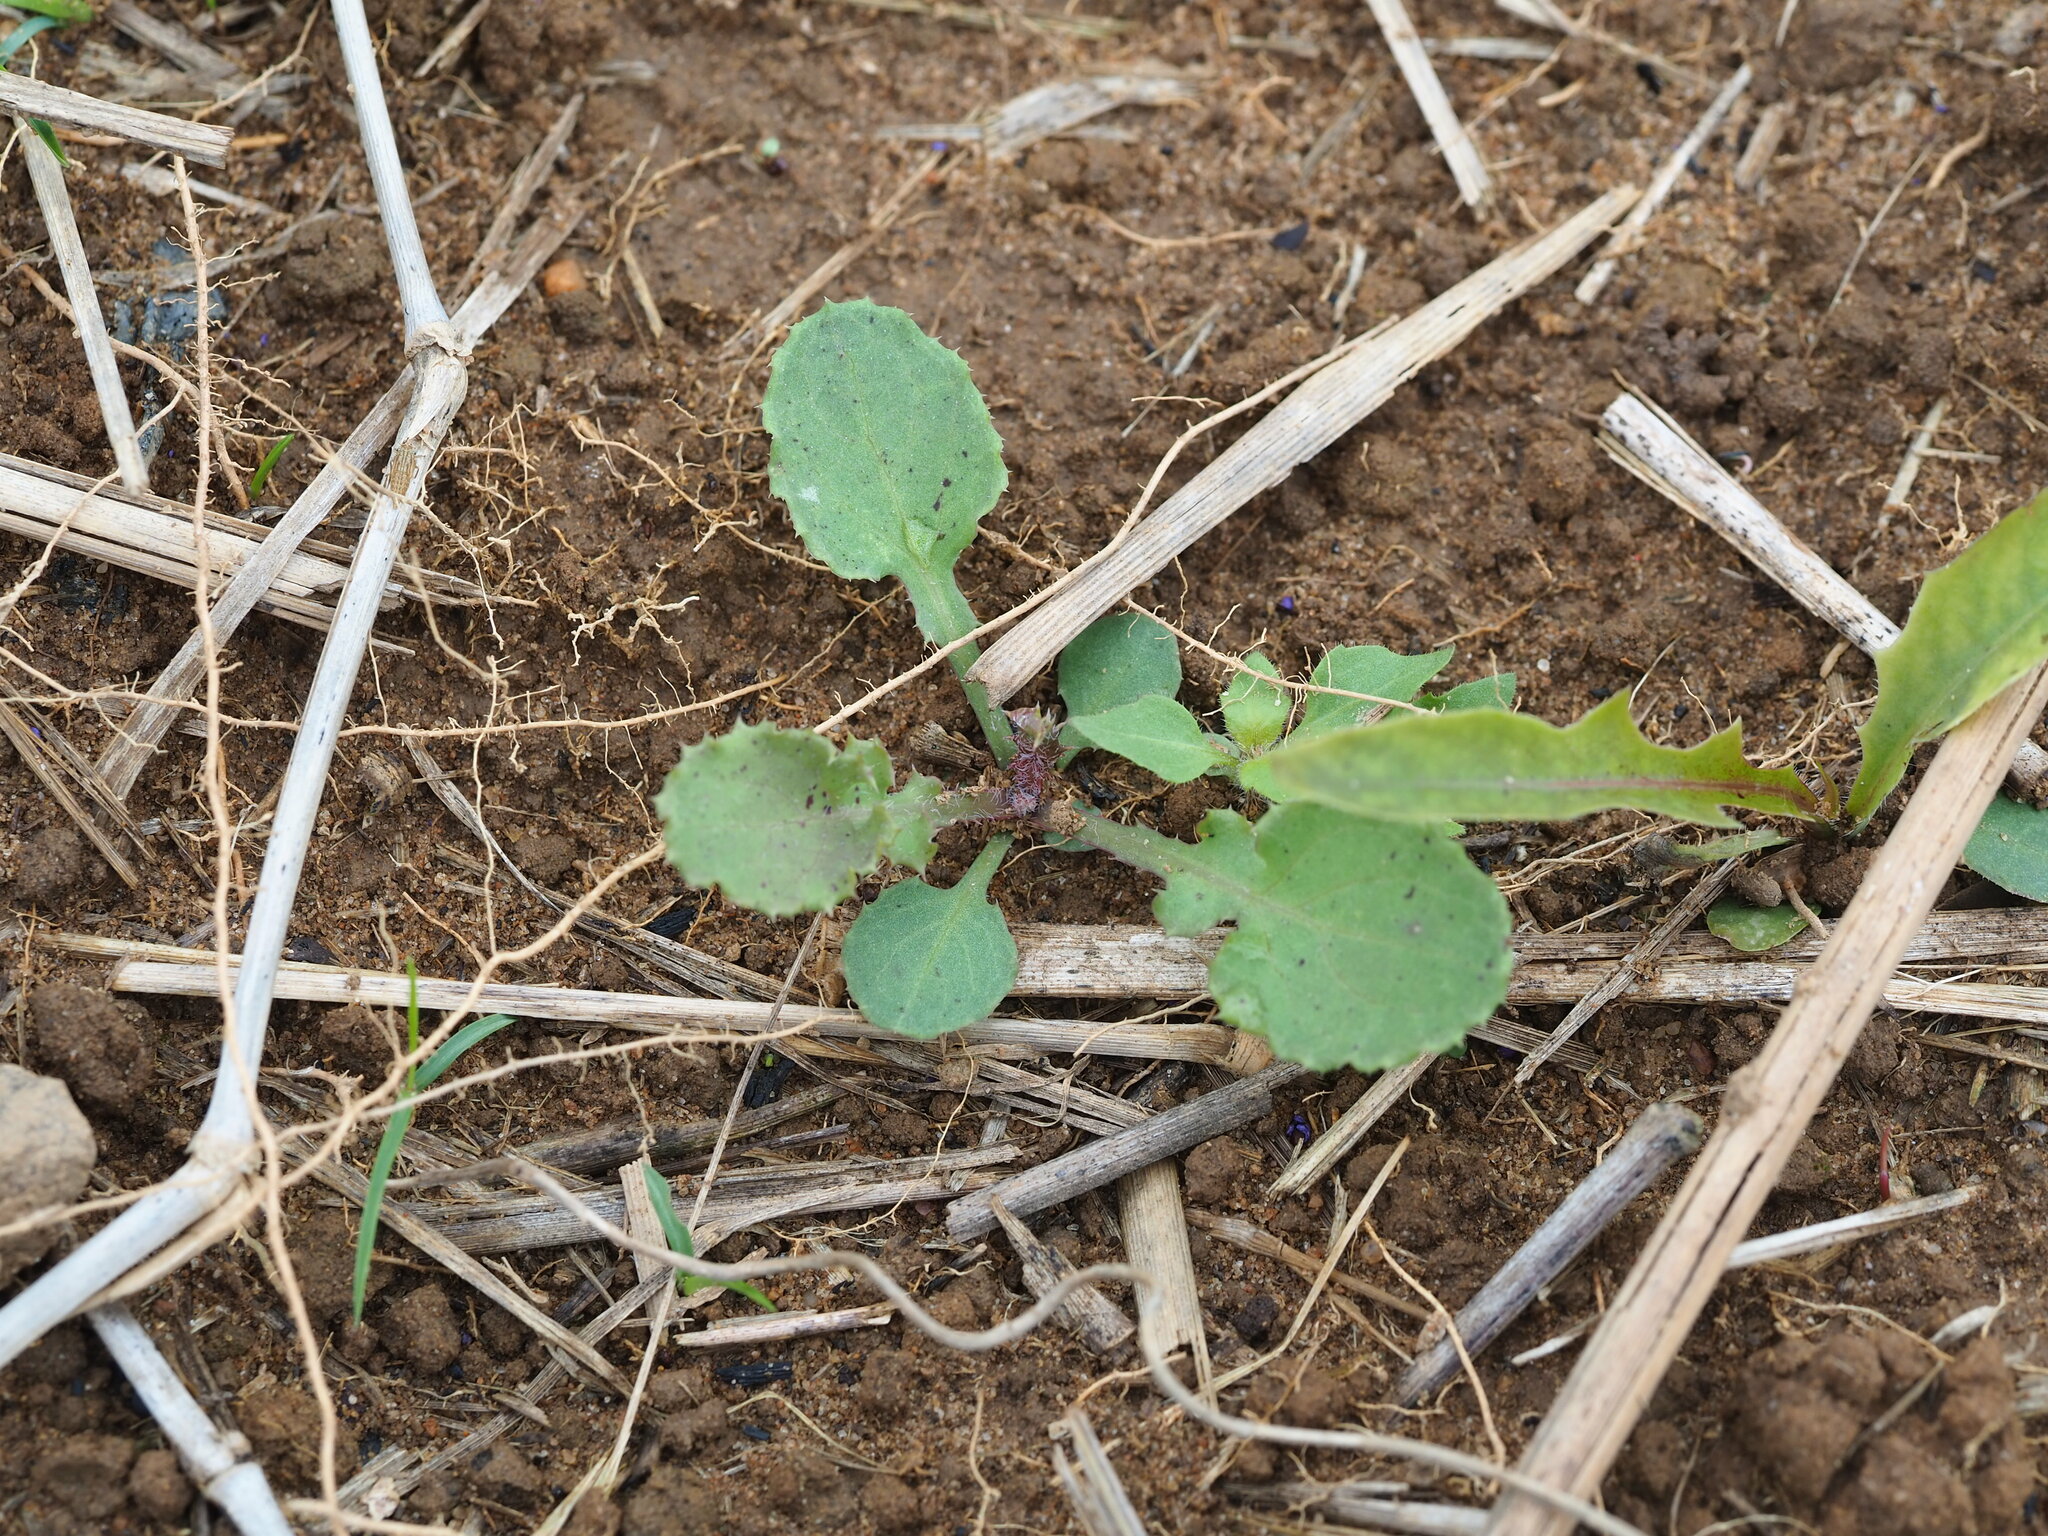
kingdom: Plantae
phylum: Tracheophyta
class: Magnoliopsida
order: Asterales
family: Asteraceae
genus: Sonchus
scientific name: Sonchus oleraceus
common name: Common sowthistle
